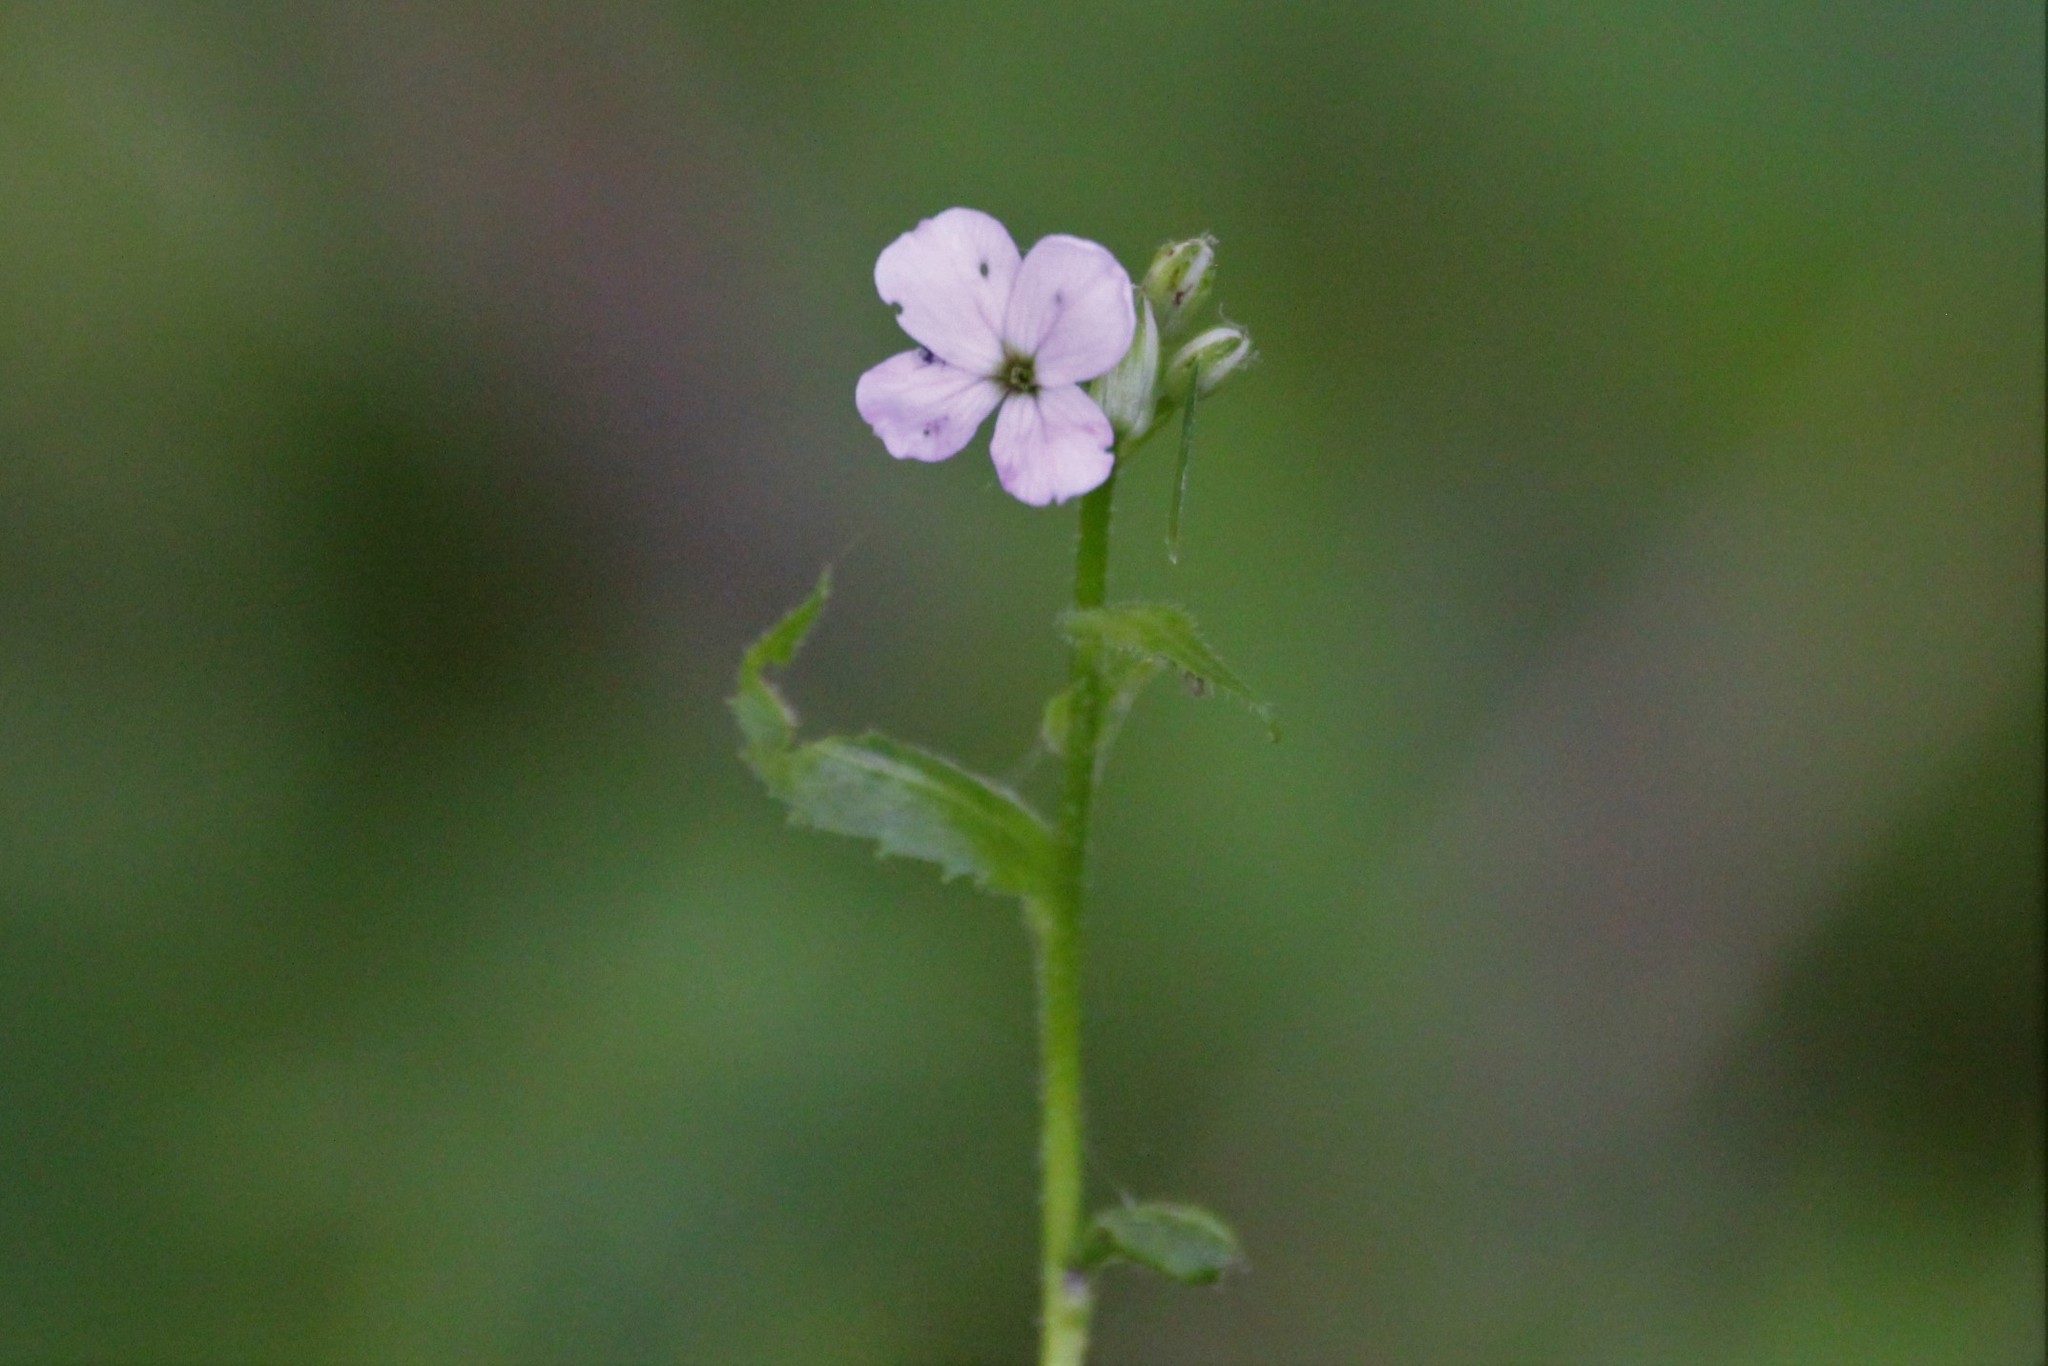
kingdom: Plantae
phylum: Tracheophyta
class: Magnoliopsida
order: Brassicales
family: Brassicaceae
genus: Hesperis
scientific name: Hesperis matronalis
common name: Dame's-violet
